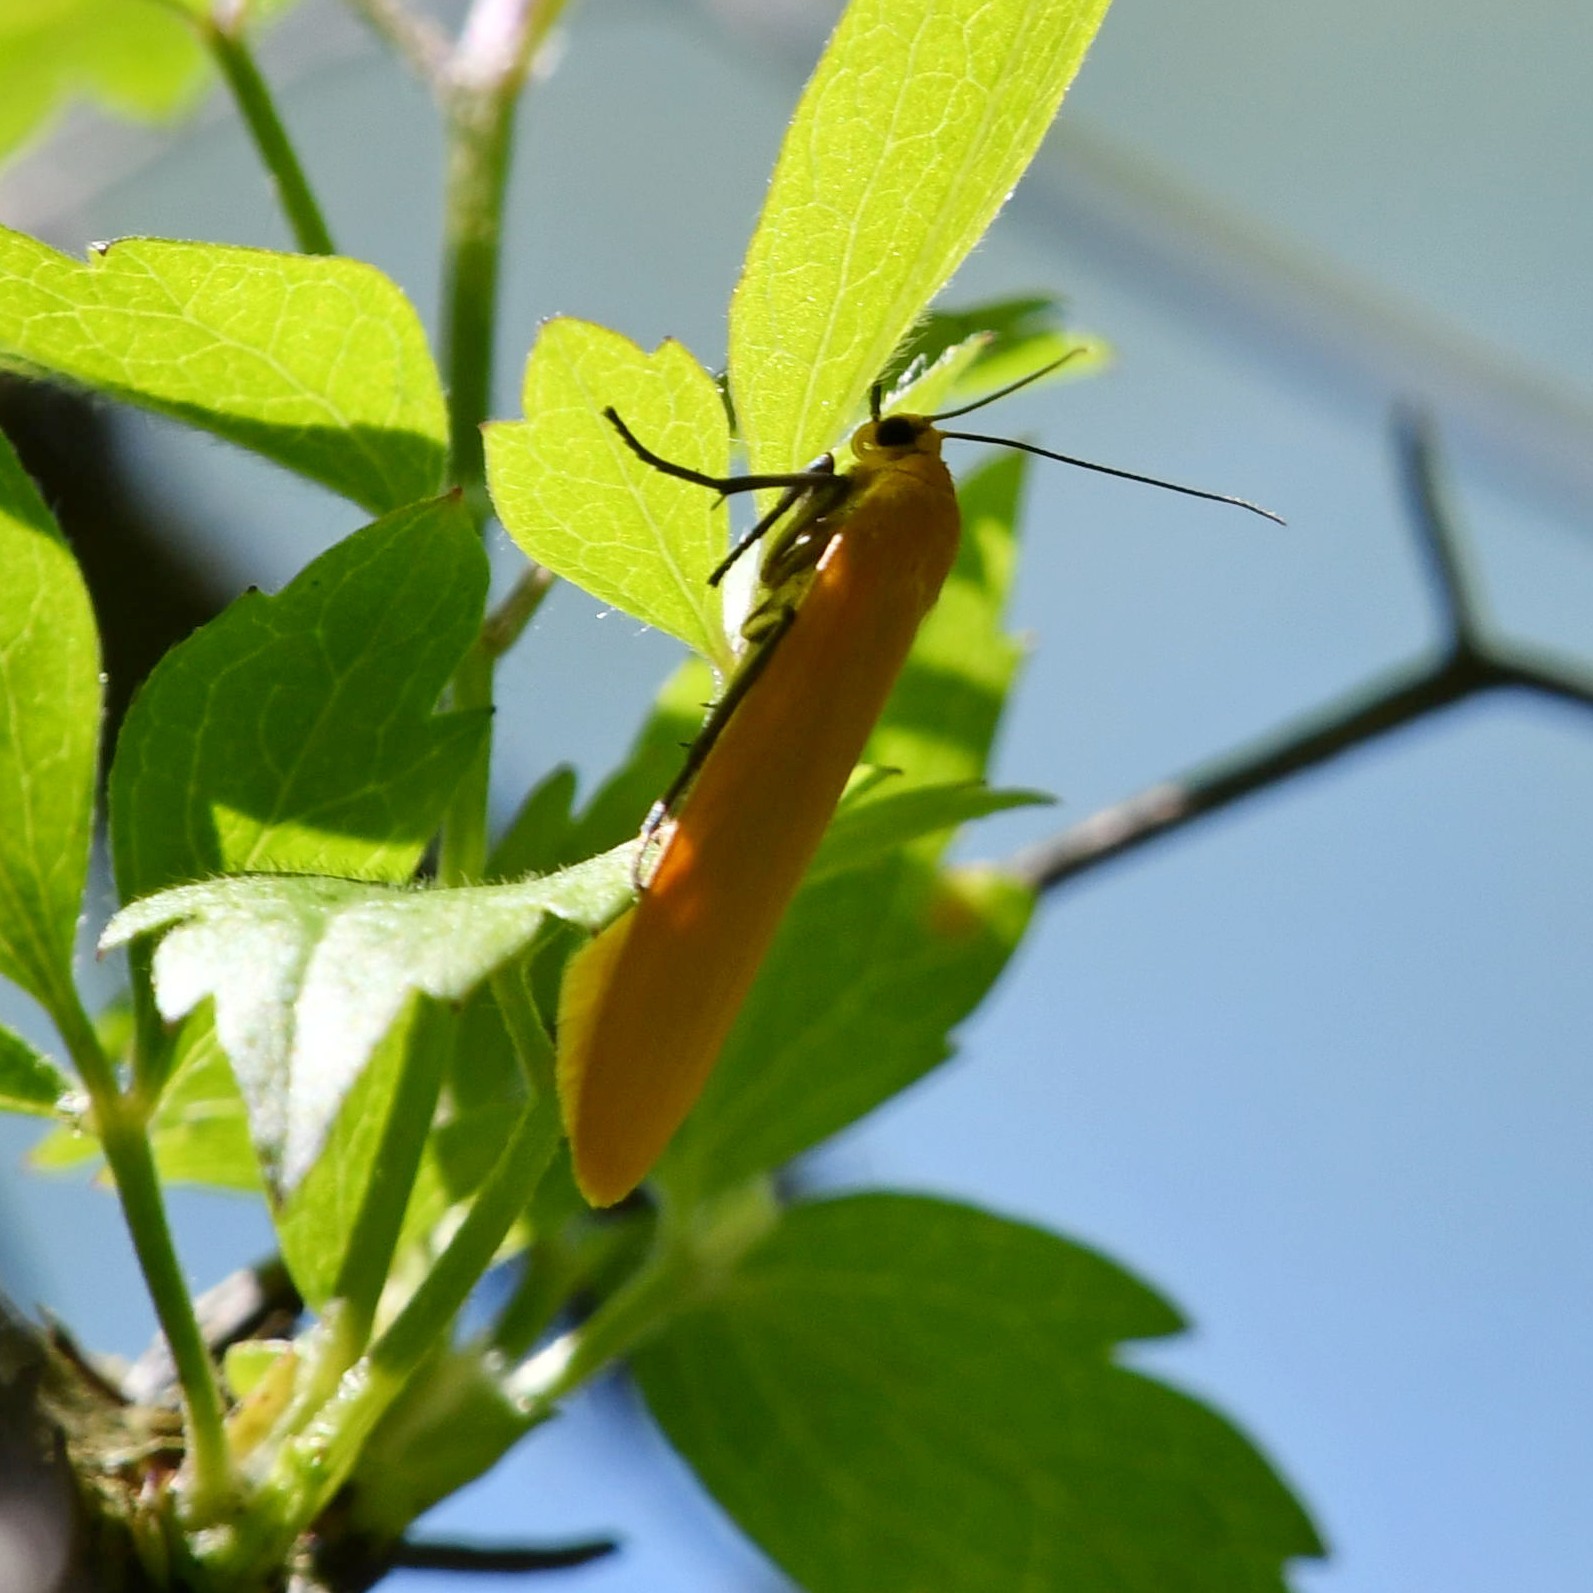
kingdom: Animalia
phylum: Arthropoda
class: Insecta
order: Lepidoptera
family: Erebidae
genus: Wittia
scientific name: Wittia sororcula
